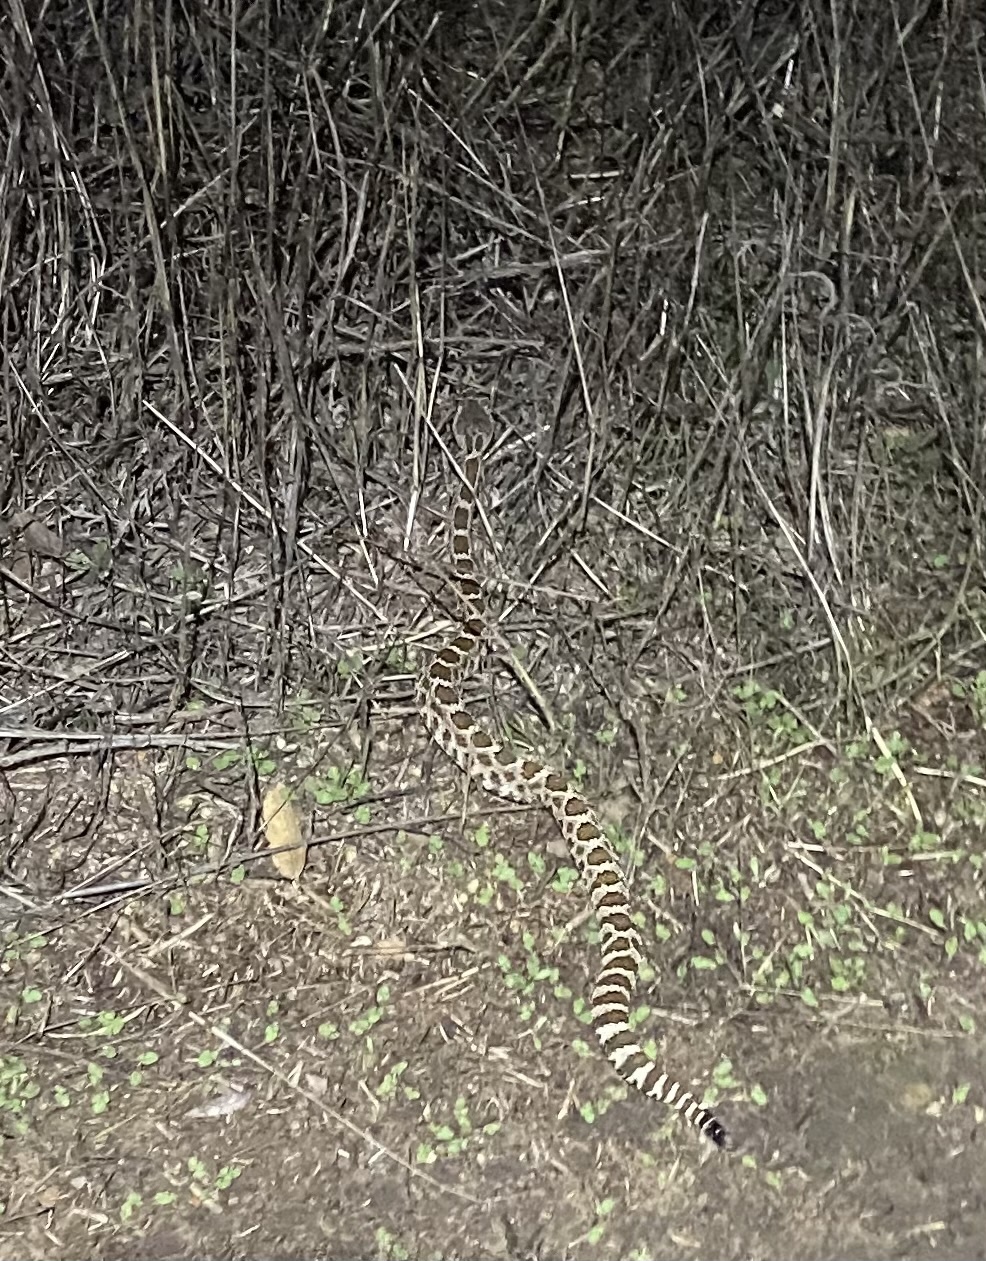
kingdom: Animalia
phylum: Chordata
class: Squamata
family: Viperidae
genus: Crotalus
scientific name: Crotalus oreganus
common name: Abyssus
